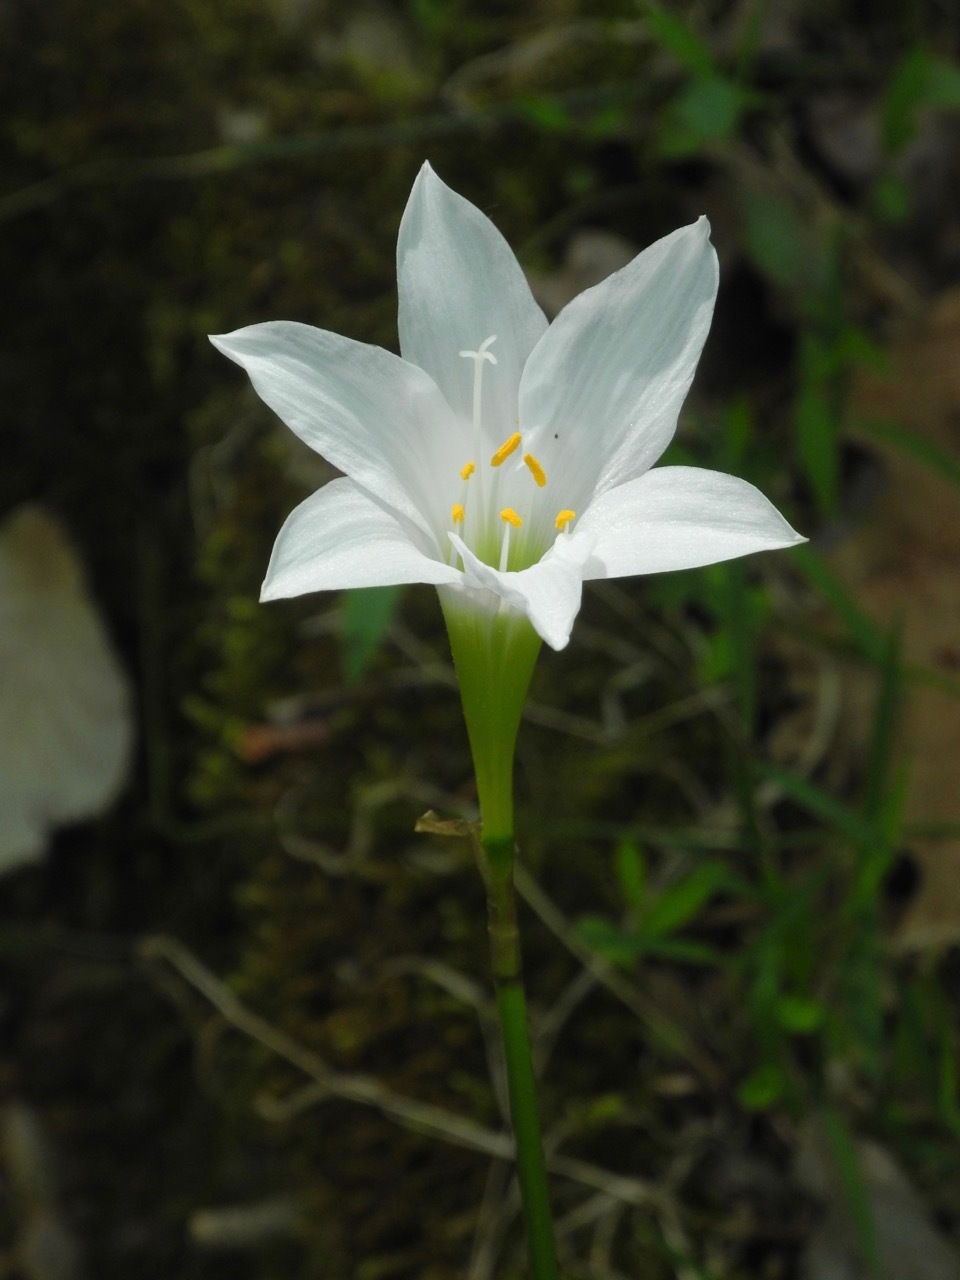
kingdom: Plantae
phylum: Tracheophyta
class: Liliopsida
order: Asparagales
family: Amaryllidaceae
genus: Zephyranthes
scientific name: Zephyranthes atamasco
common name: Atamasco lily
